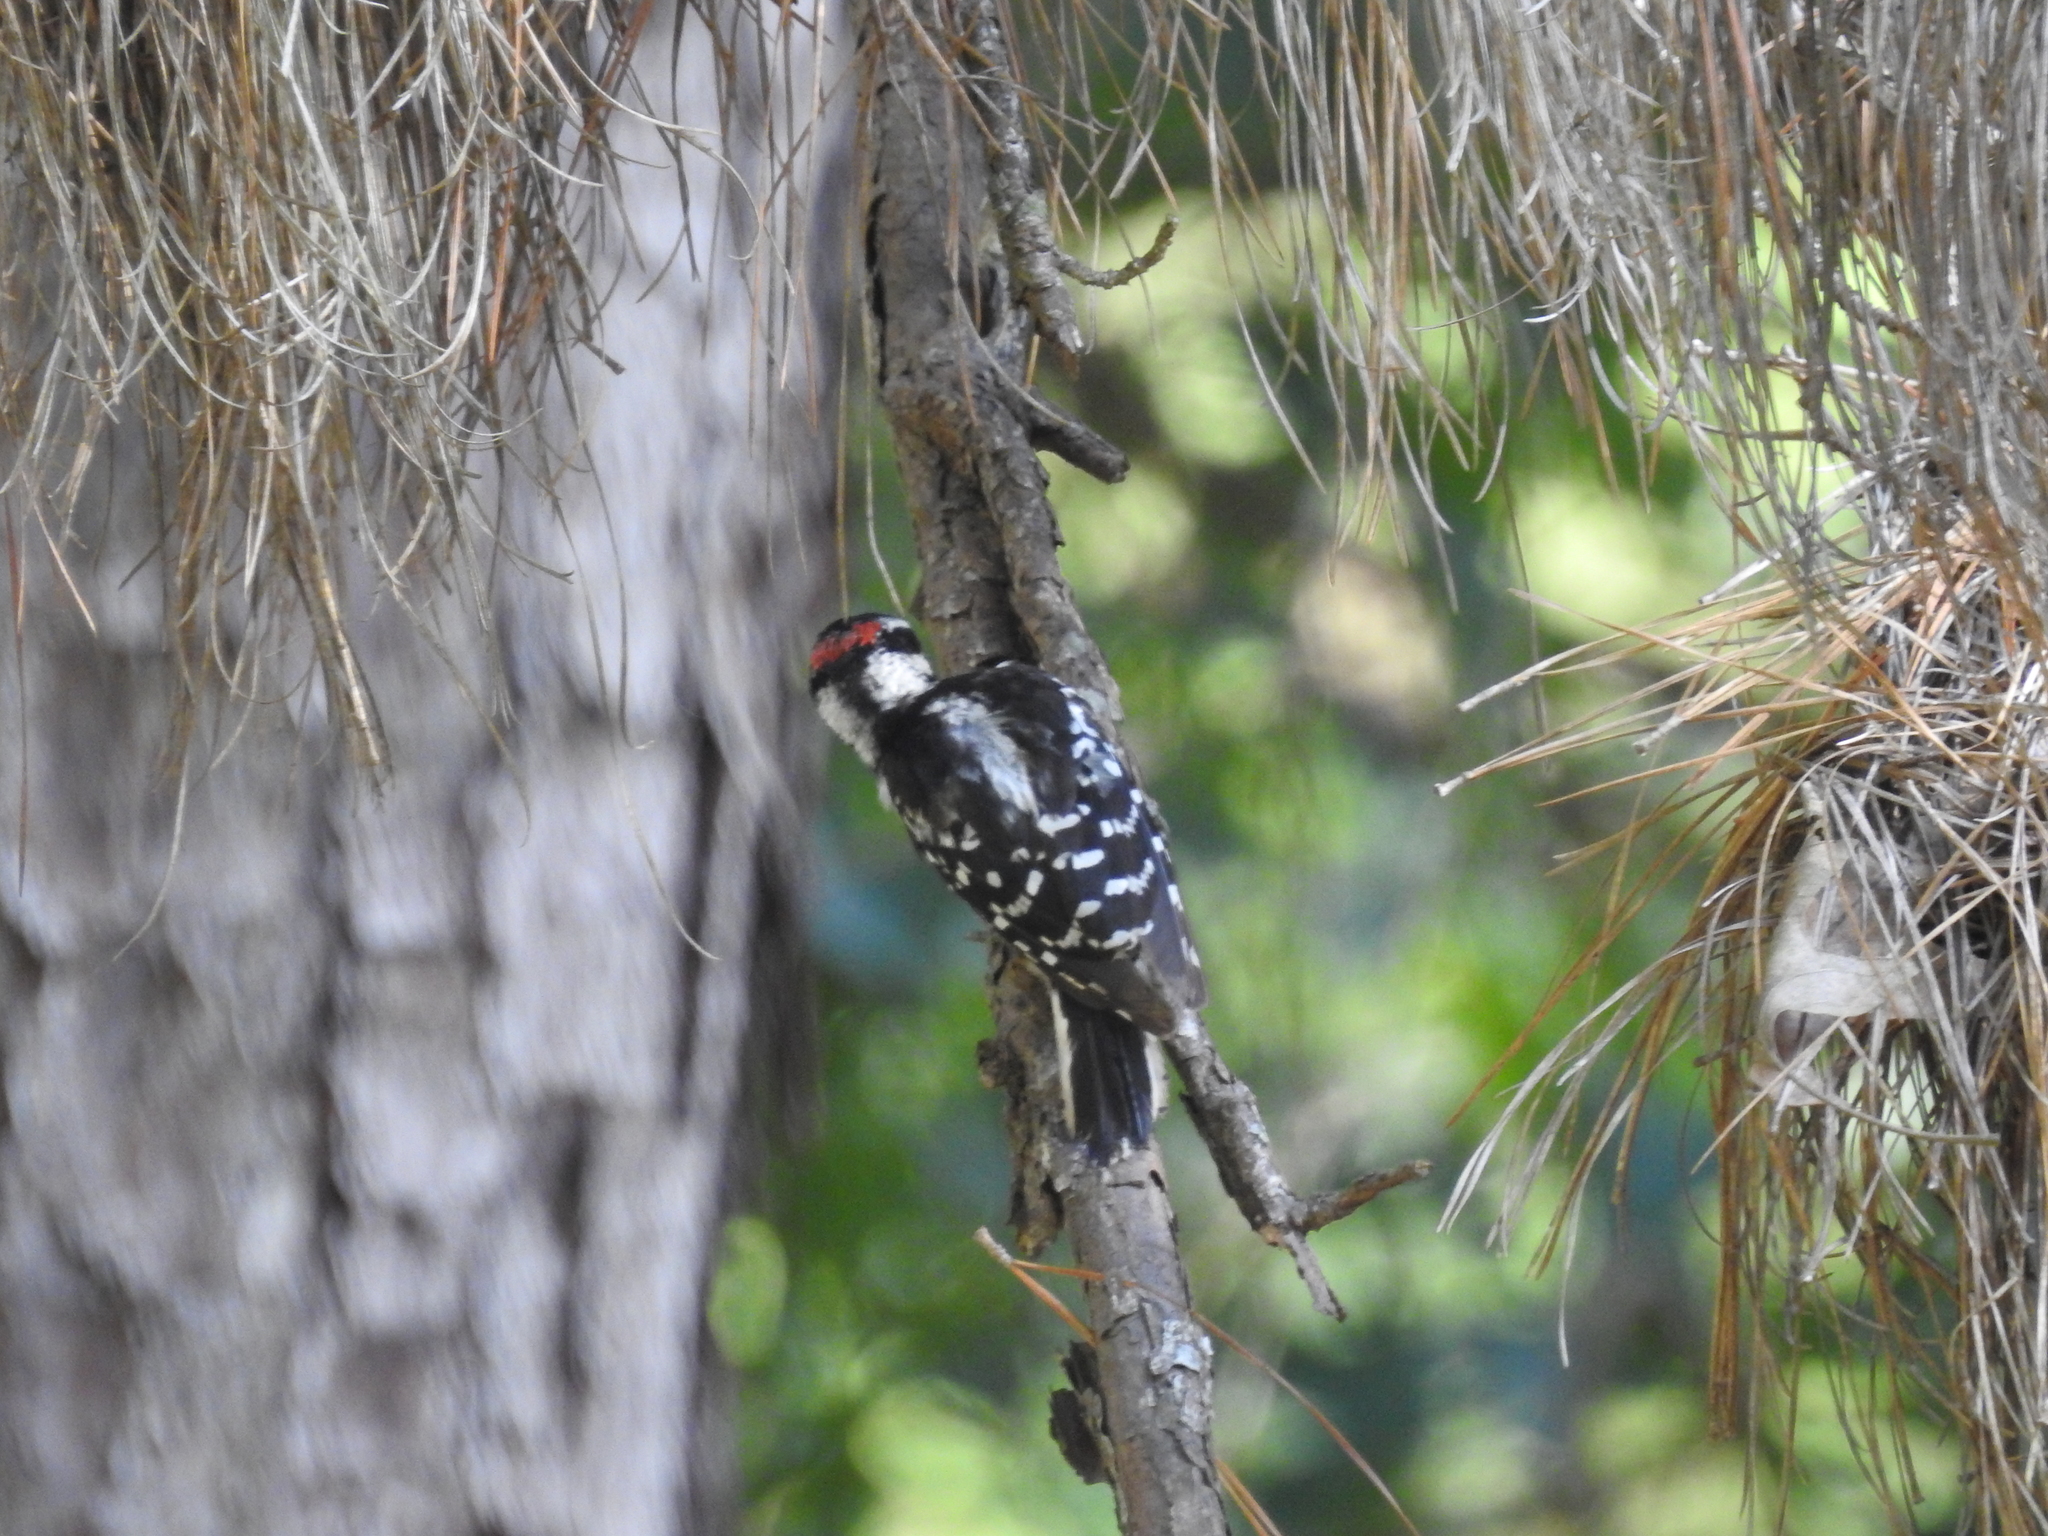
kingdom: Animalia
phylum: Chordata
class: Aves
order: Piciformes
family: Picidae
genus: Dryobates
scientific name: Dryobates pubescens
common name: Downy woodpecker
